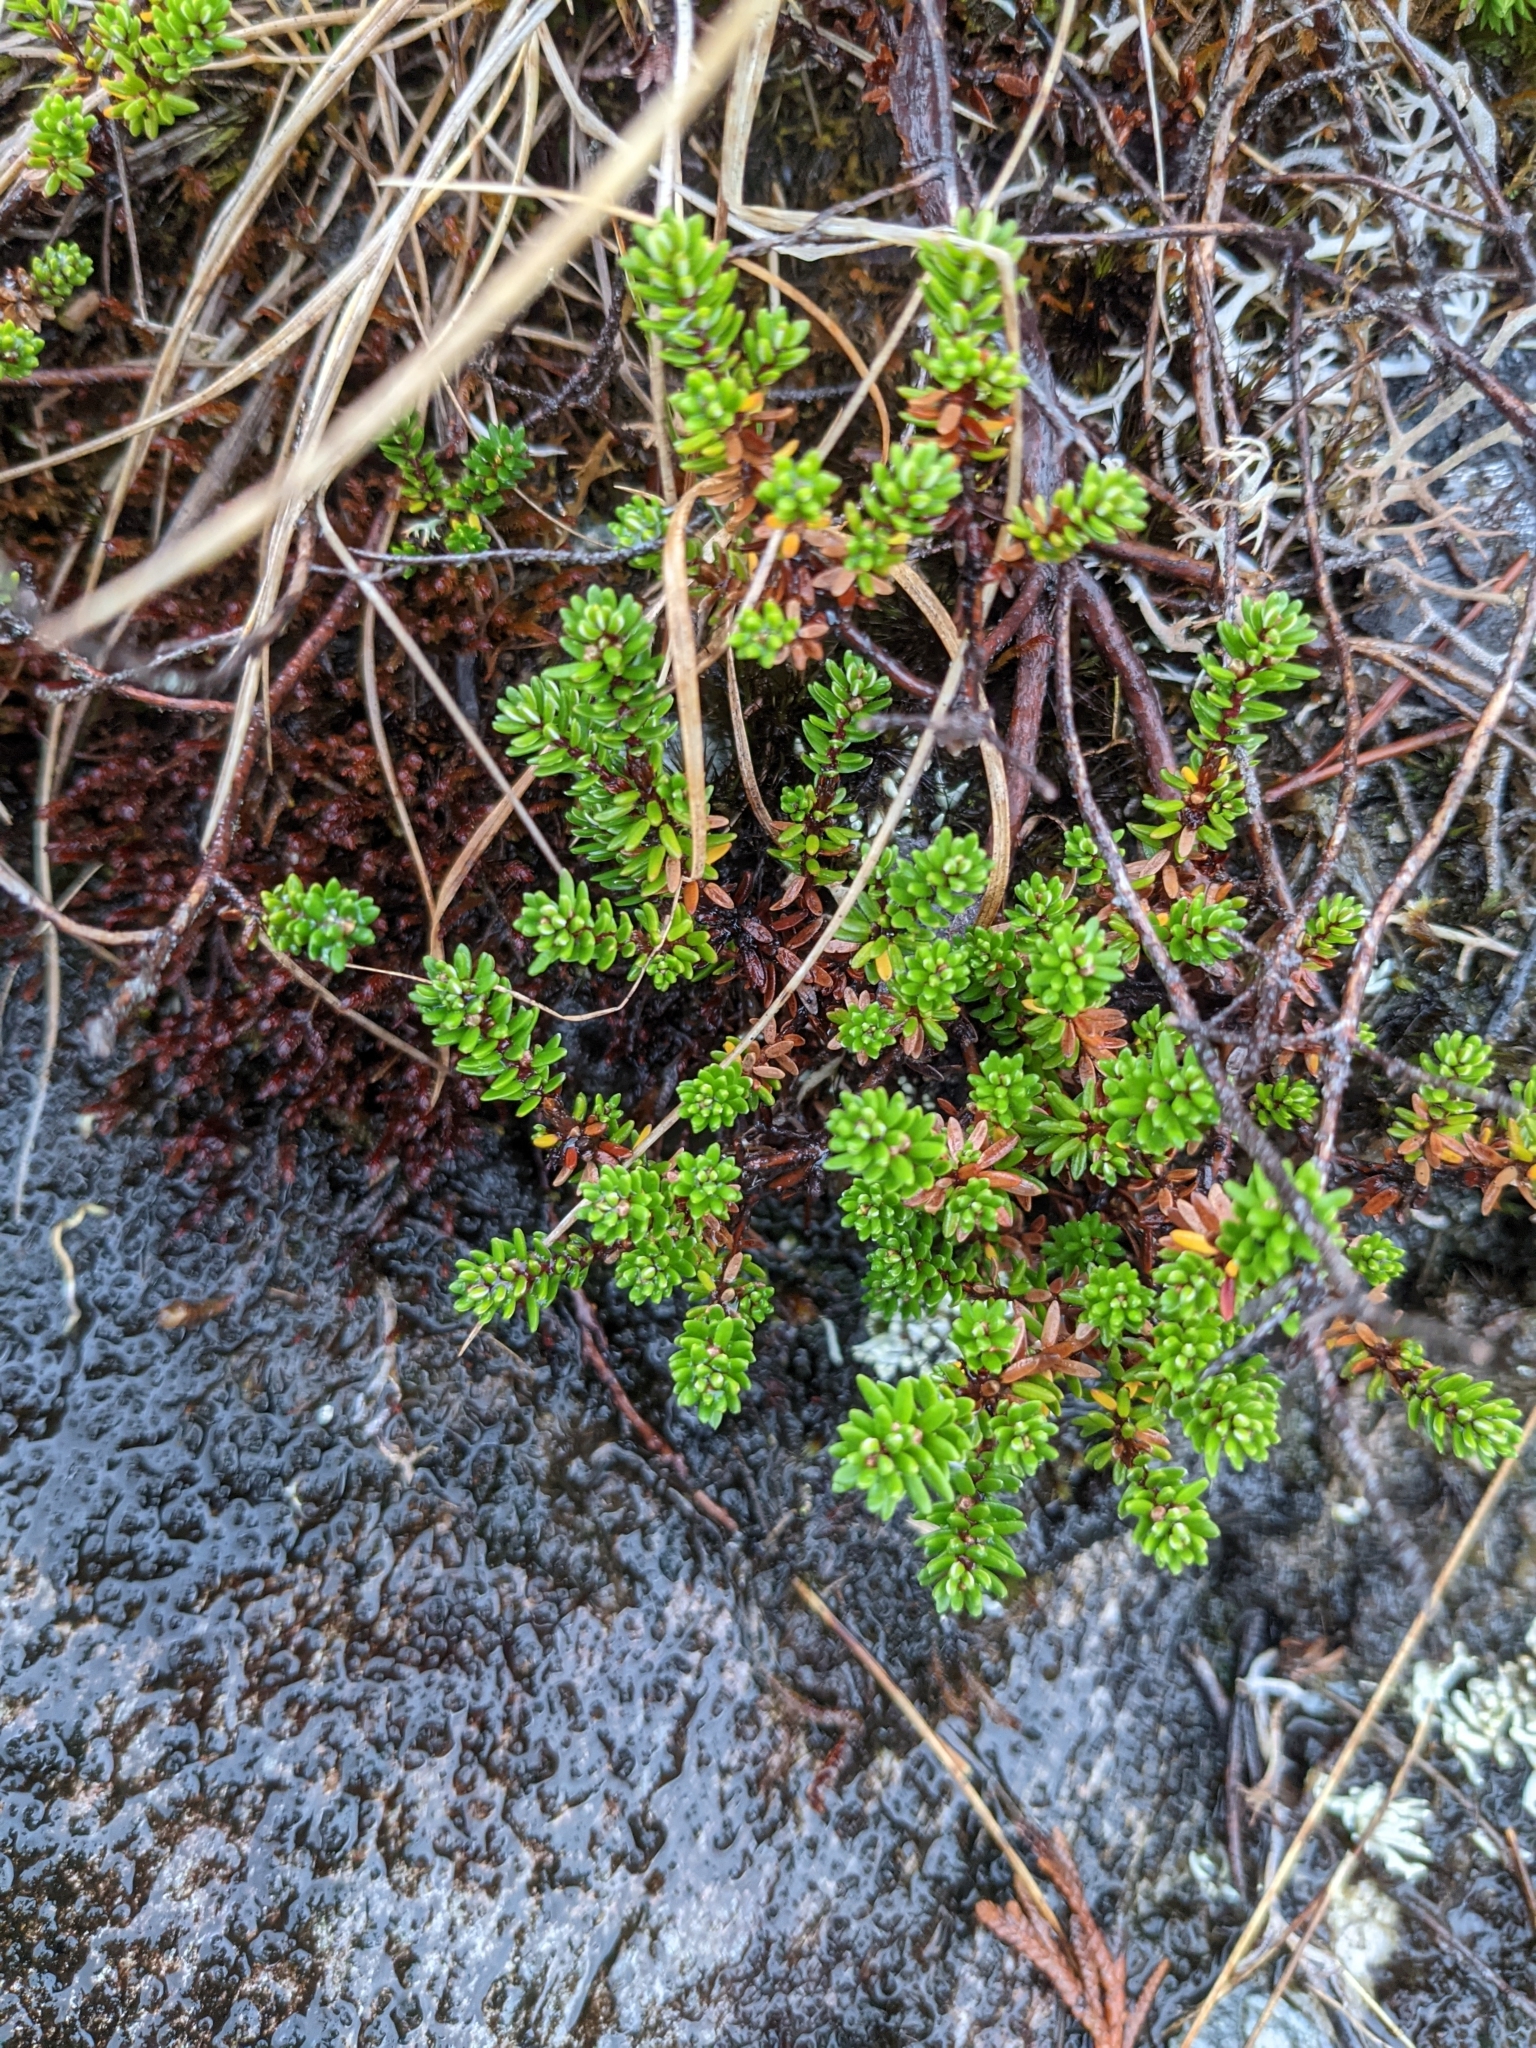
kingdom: Plantae
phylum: Tracheophyta
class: Magnoliopsida
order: Ericales
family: Ericaceae
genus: Empetrum
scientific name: Empetrum nigrum
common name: Black crowberry
